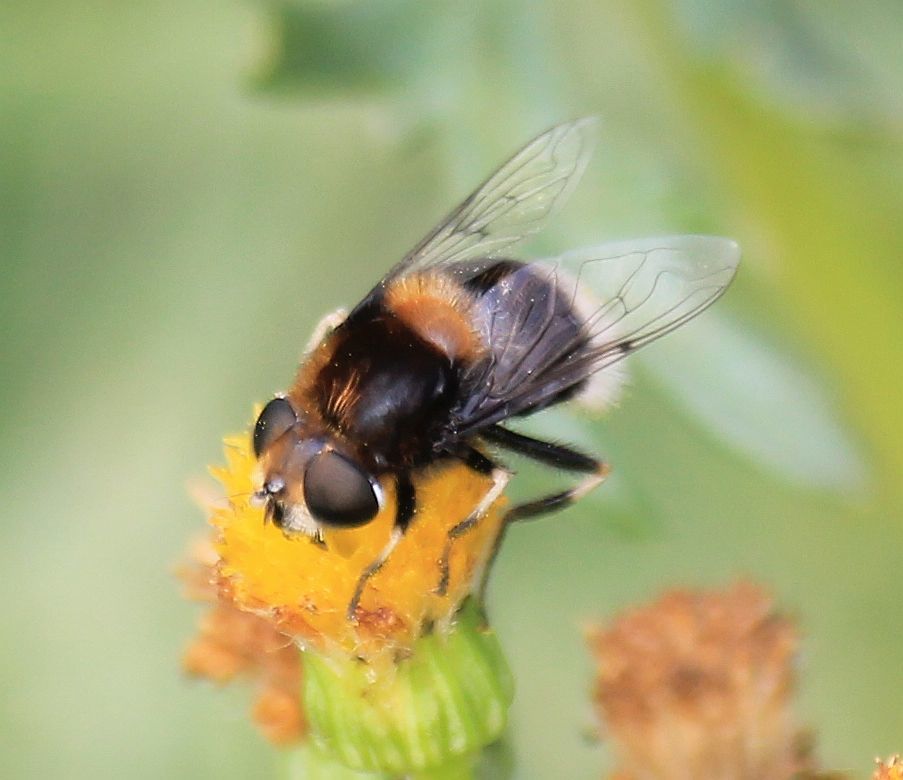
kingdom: Animalia
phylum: Arthropoda
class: Insecta
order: Diptera
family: Syrphidae
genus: Eristalis
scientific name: Eristalis intricaria
